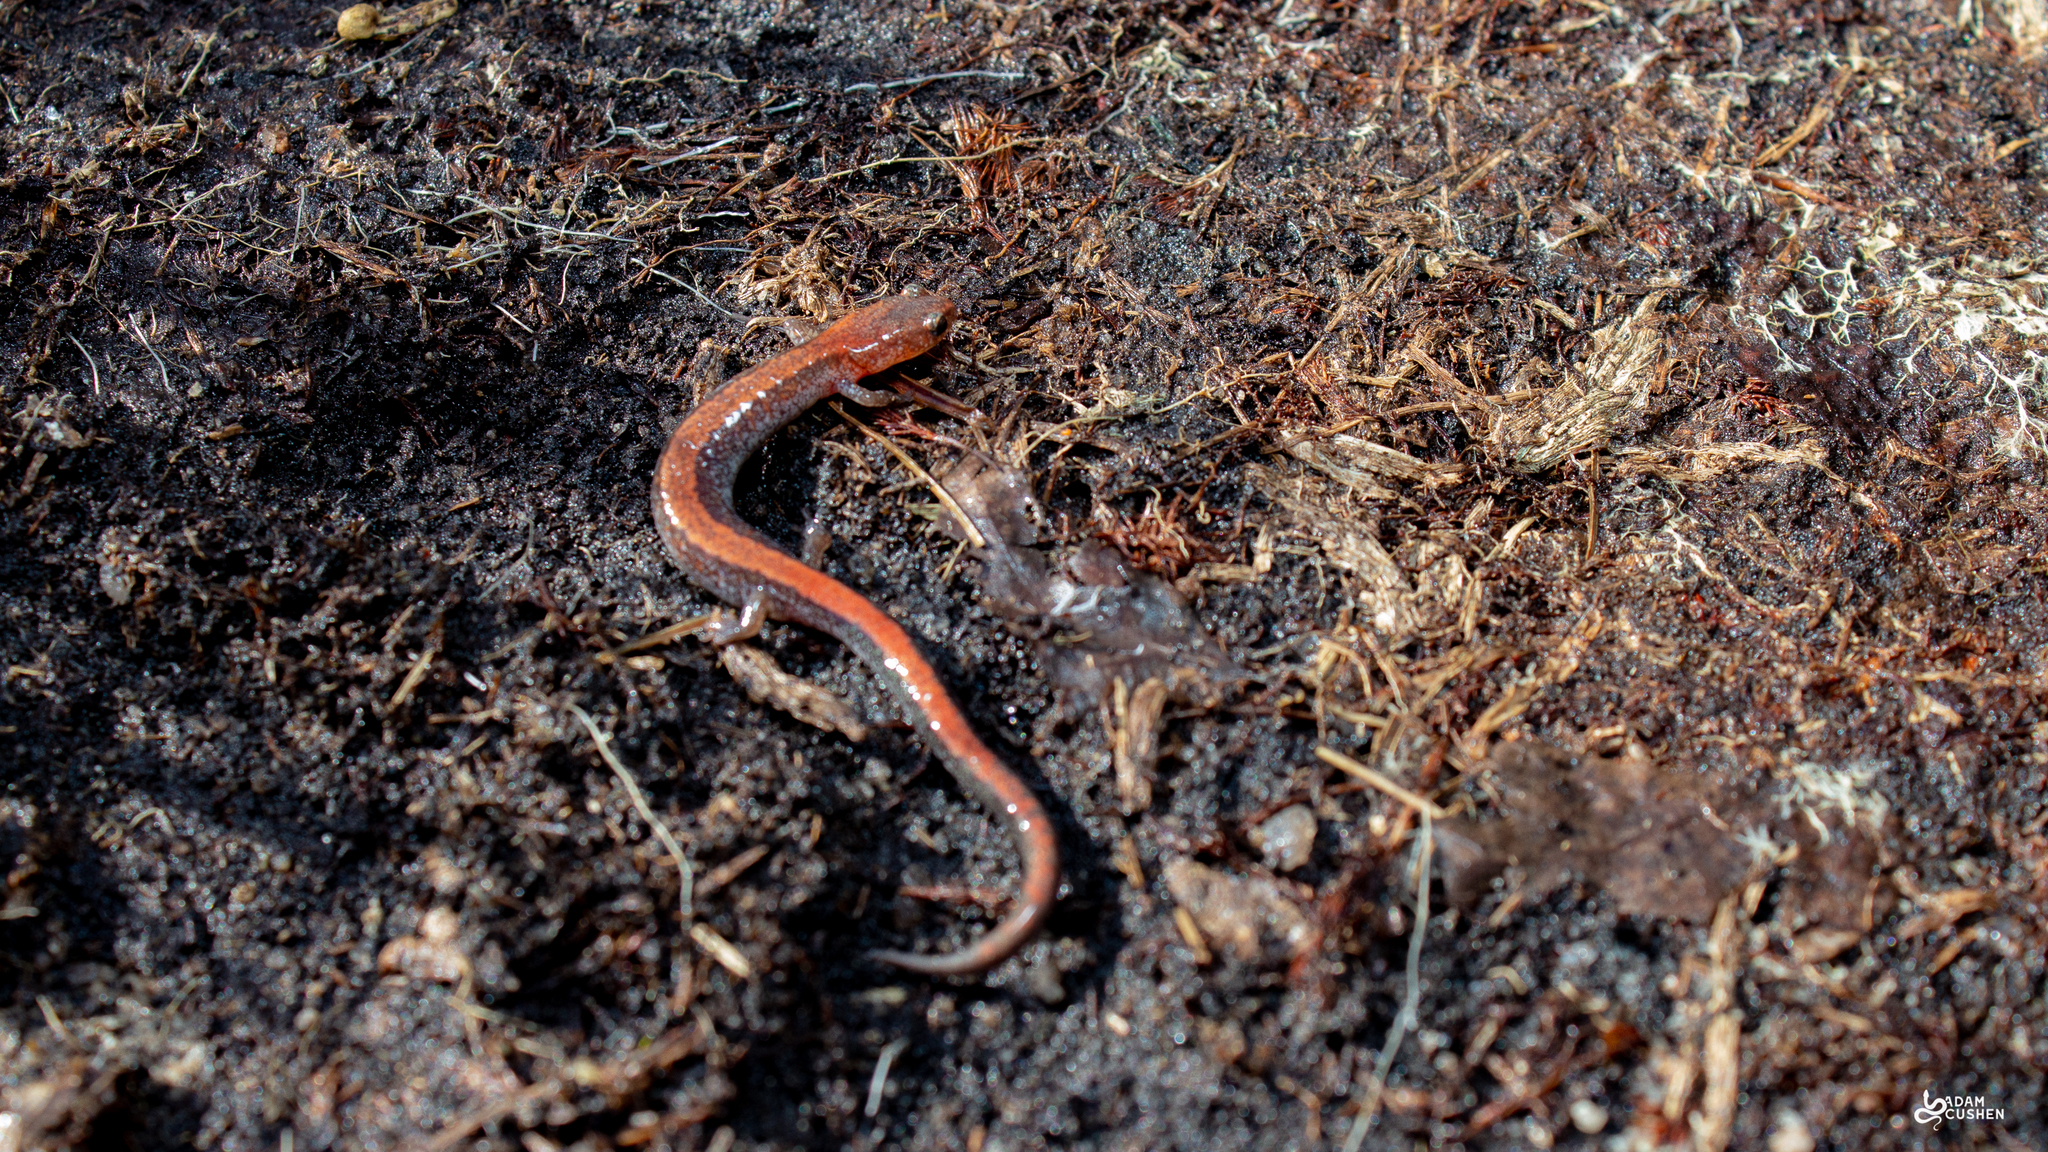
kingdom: Animalia
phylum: Chordata
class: Amphibia
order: Caudata
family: Plethodontidae
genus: Plethodon
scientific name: Plethodon cinereus
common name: Redback salamander
